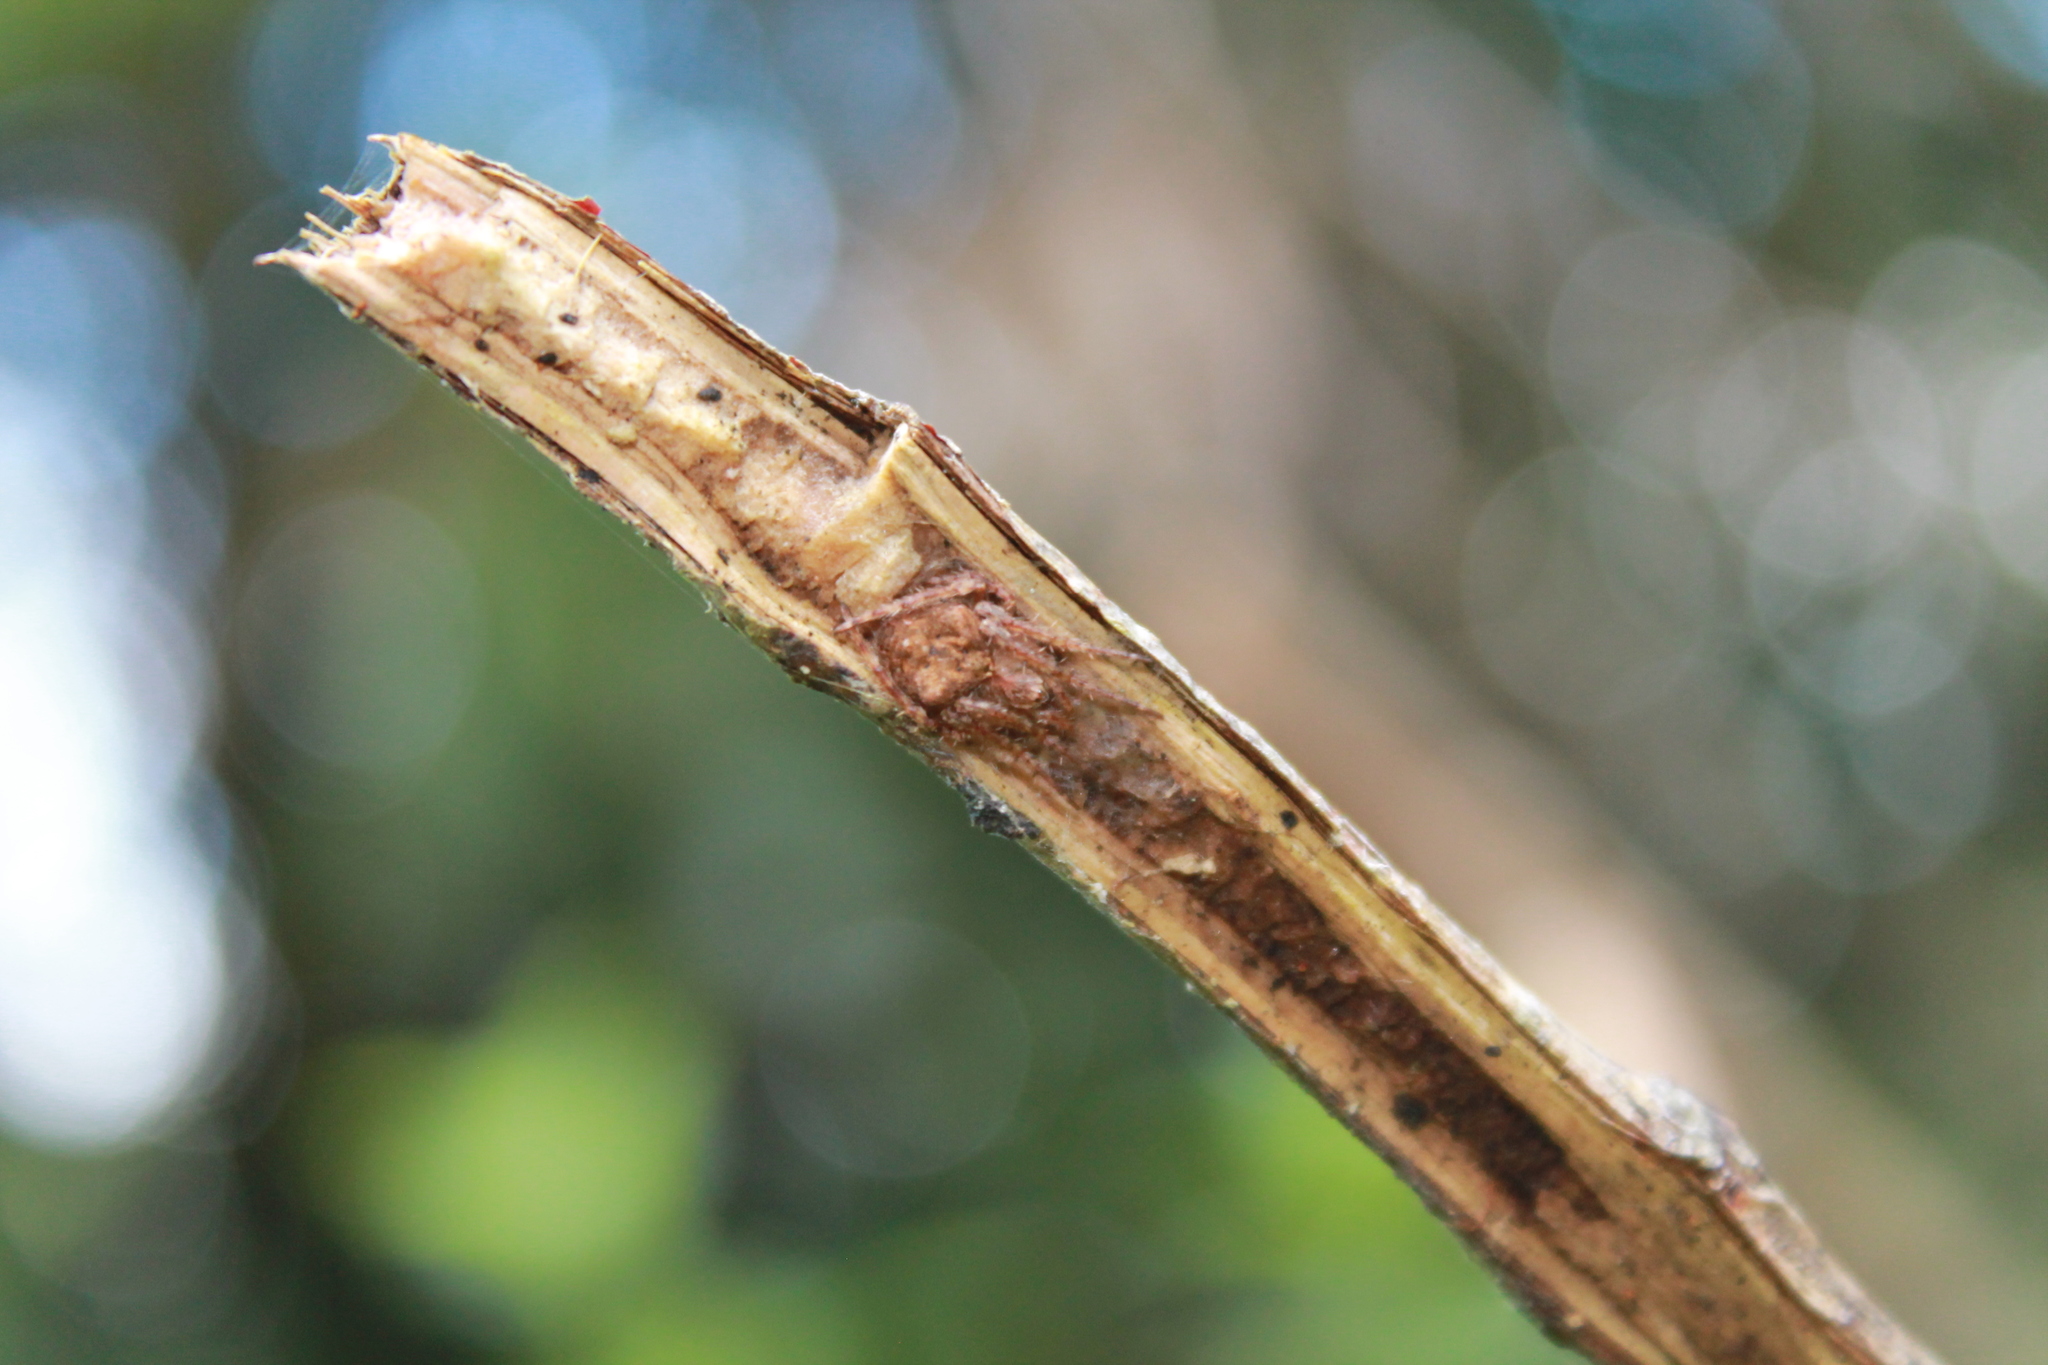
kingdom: Animalia
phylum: Arthropoda
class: Arachnida
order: Araneae
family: Araneidae
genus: Eriophora
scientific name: Eriophora pustulosa
